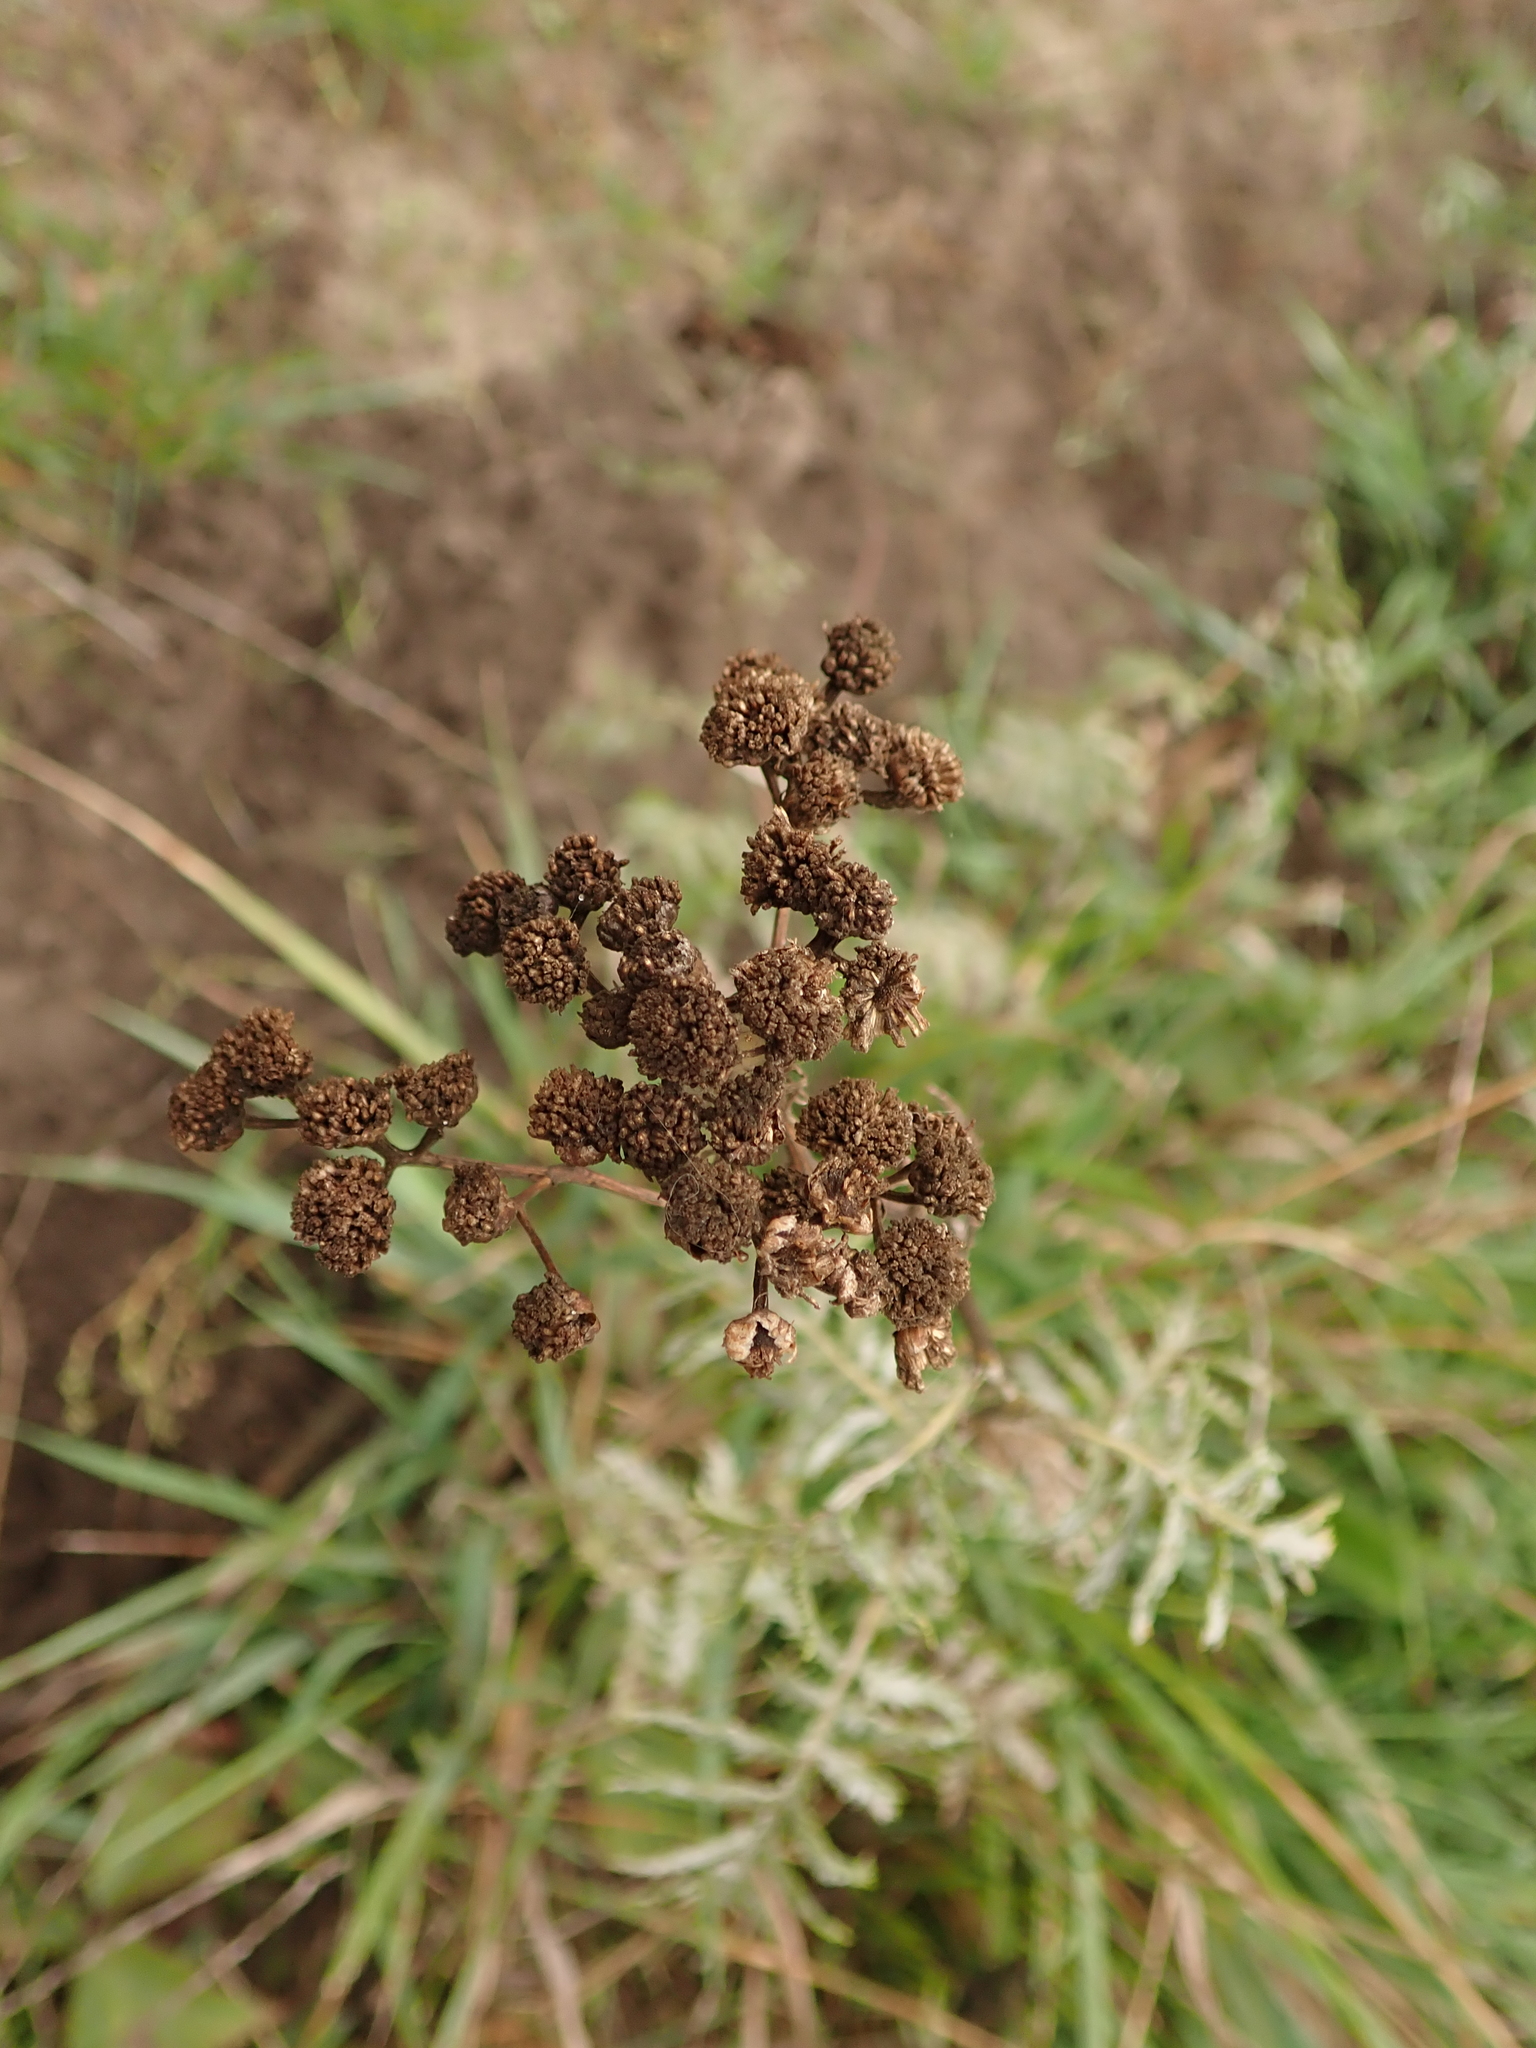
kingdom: Plantae
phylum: Tracheophyta
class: Magnoliopsida
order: Asterales
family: Asteraceae
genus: Tanacetum
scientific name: Tanacetum vulgare
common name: Common tansy
